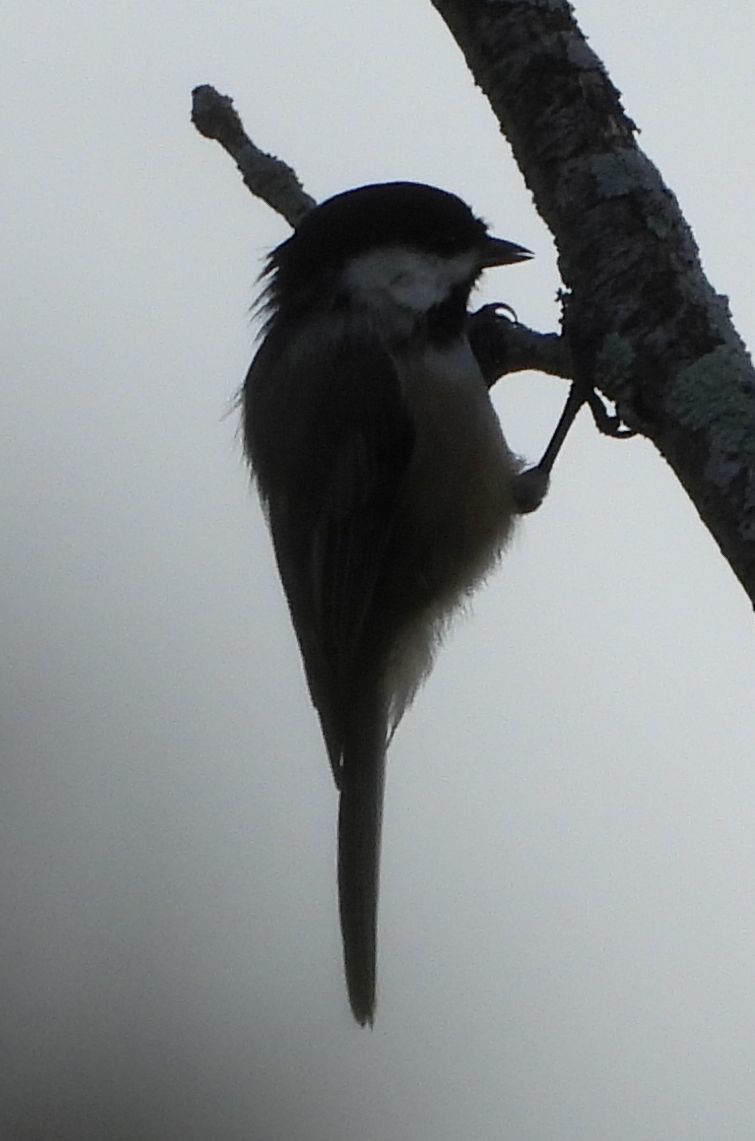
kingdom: Animalia
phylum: Chordata
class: Aves
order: Passeriformes
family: Paridae
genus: Poecile
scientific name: Poecile atricapillus
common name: Black-capped chickadee
